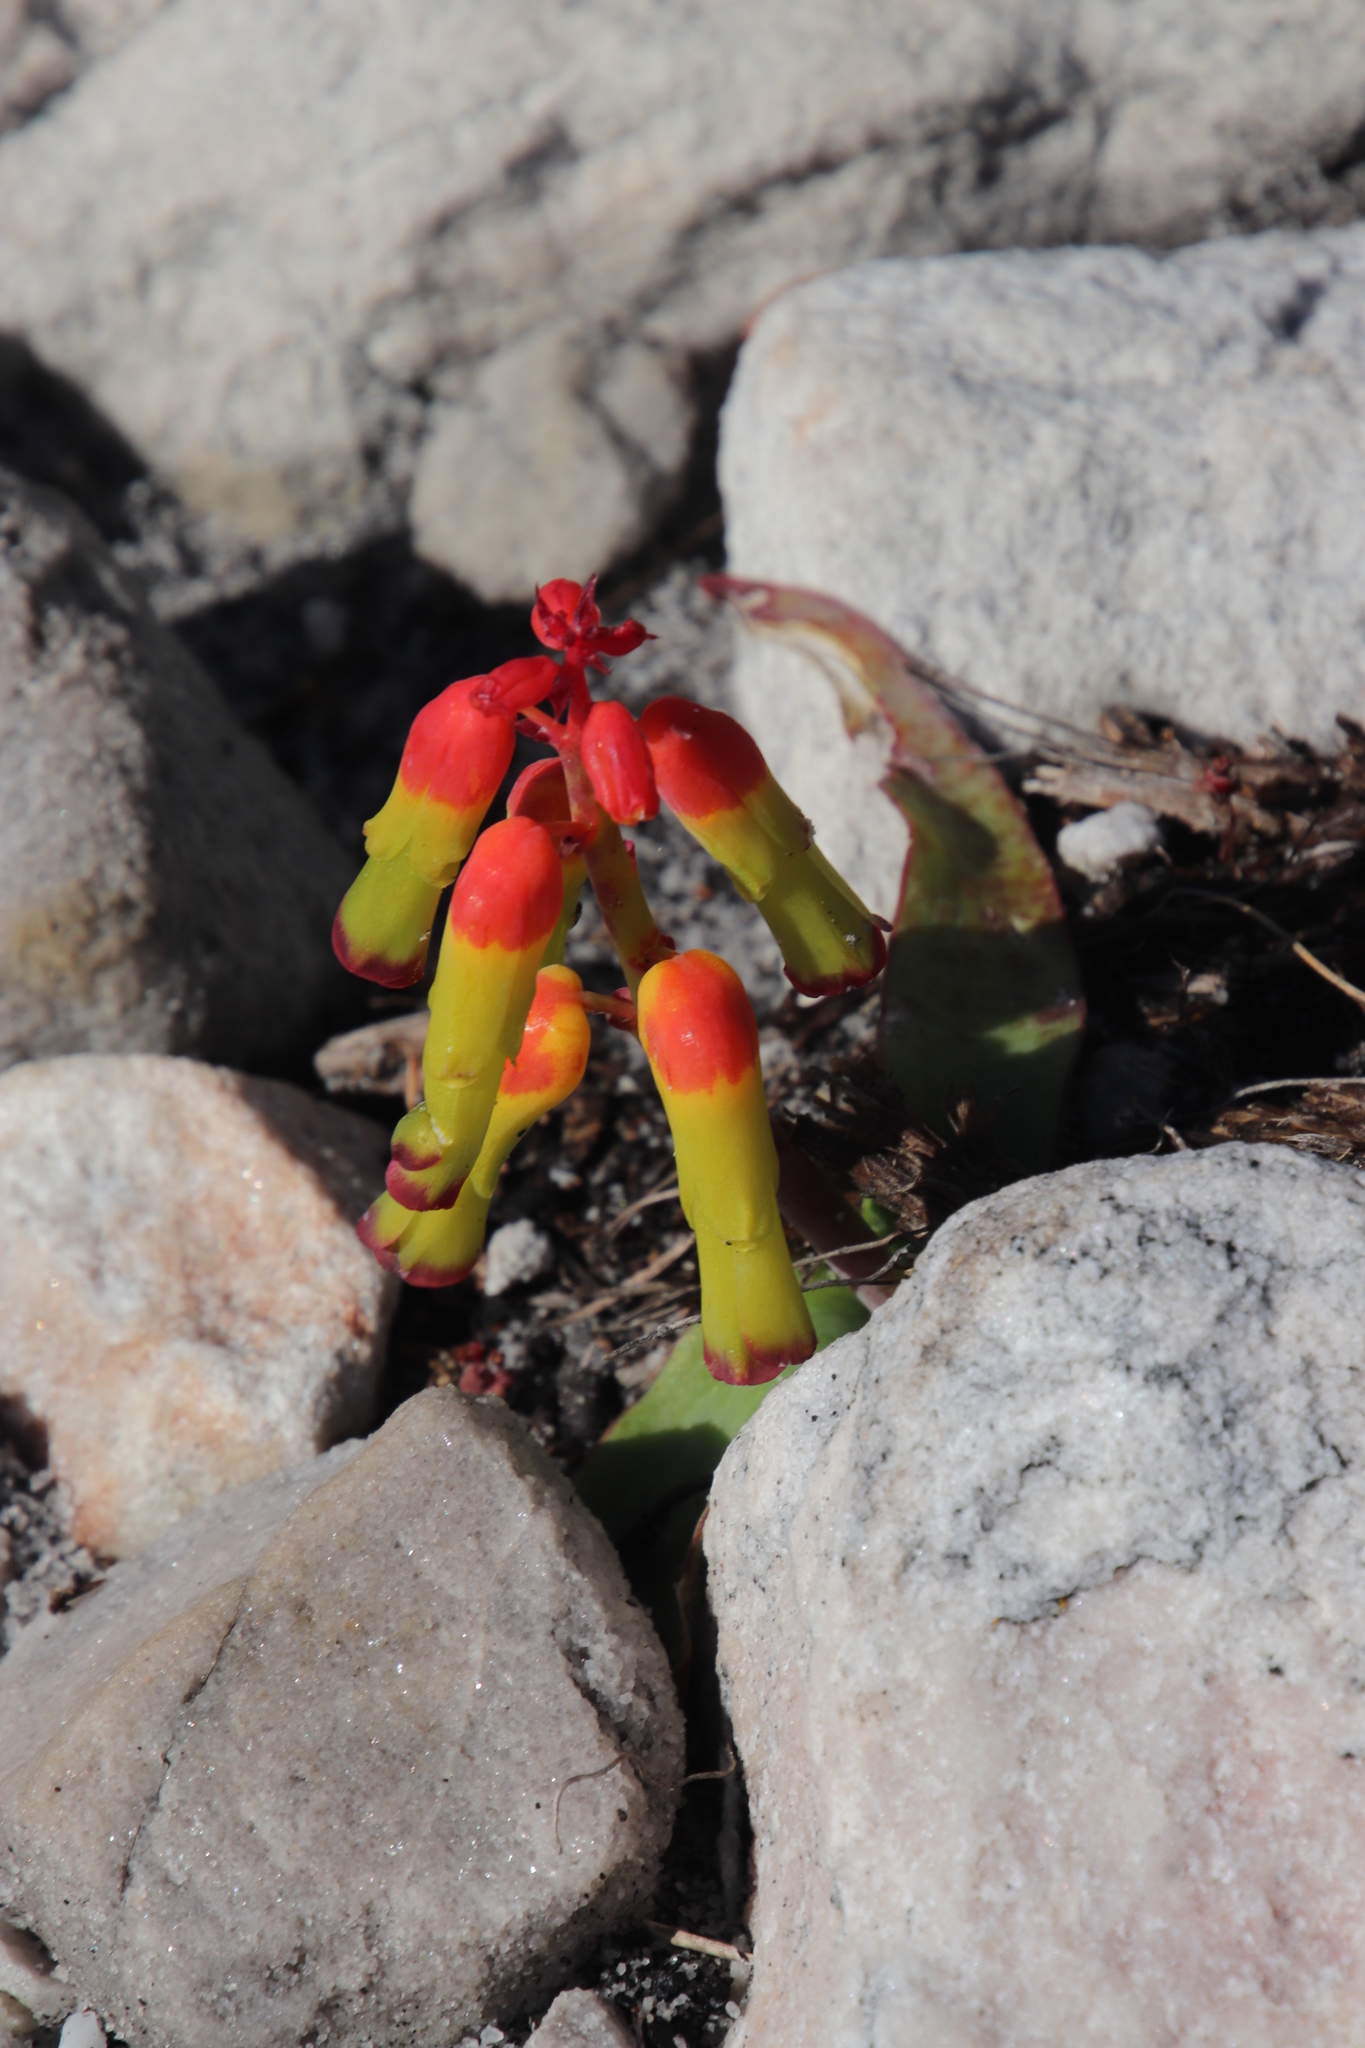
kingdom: Plantae
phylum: Tracheophyta
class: Liliopsida
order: Asparagales
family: Asparagaceae
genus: Lachenalia
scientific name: Lachenalia luteola
